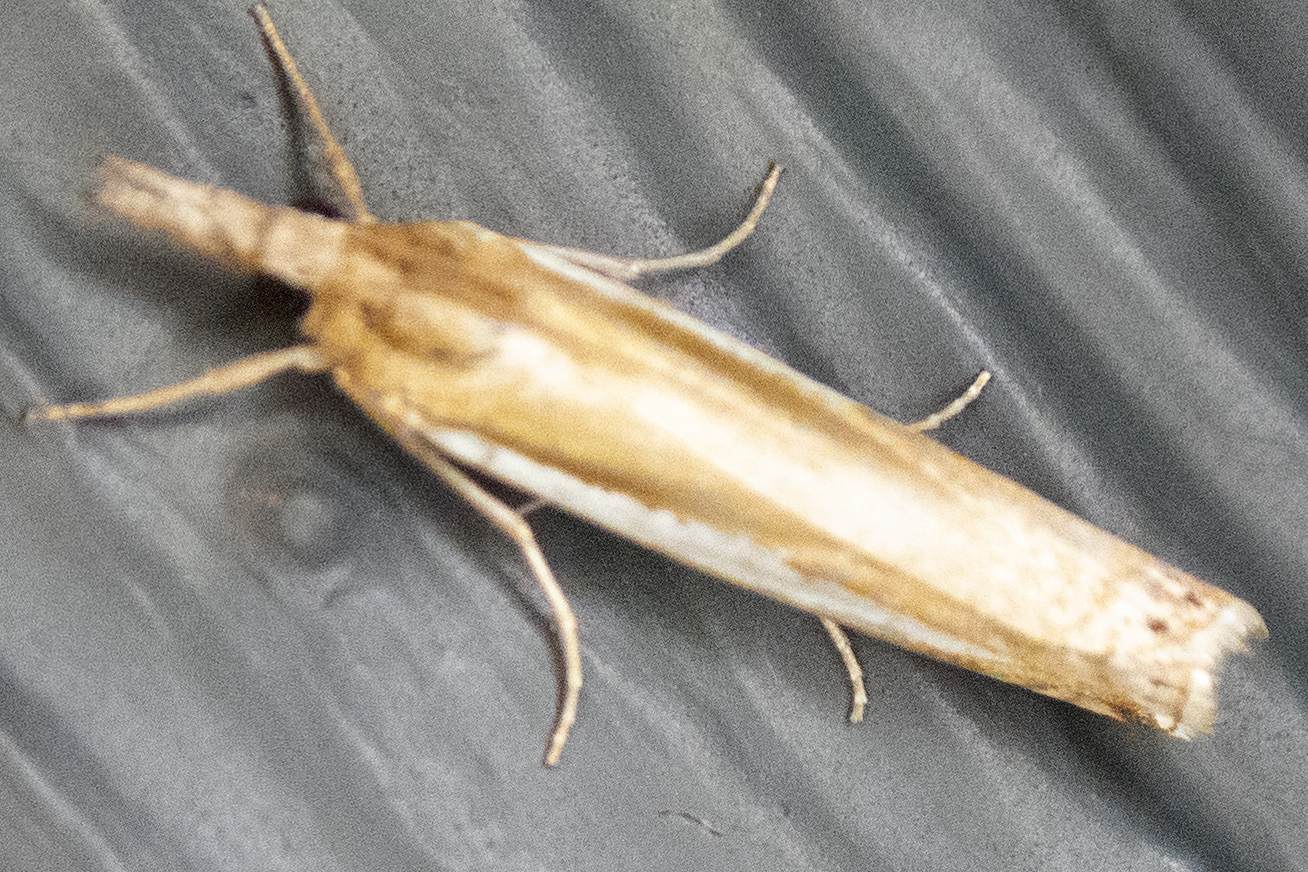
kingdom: Animalia
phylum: Arthropoda
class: Insecta
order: Lepidoptera
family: Crambidae
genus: Crambus
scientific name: Crambus praefectellus
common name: Common grass-veneer
